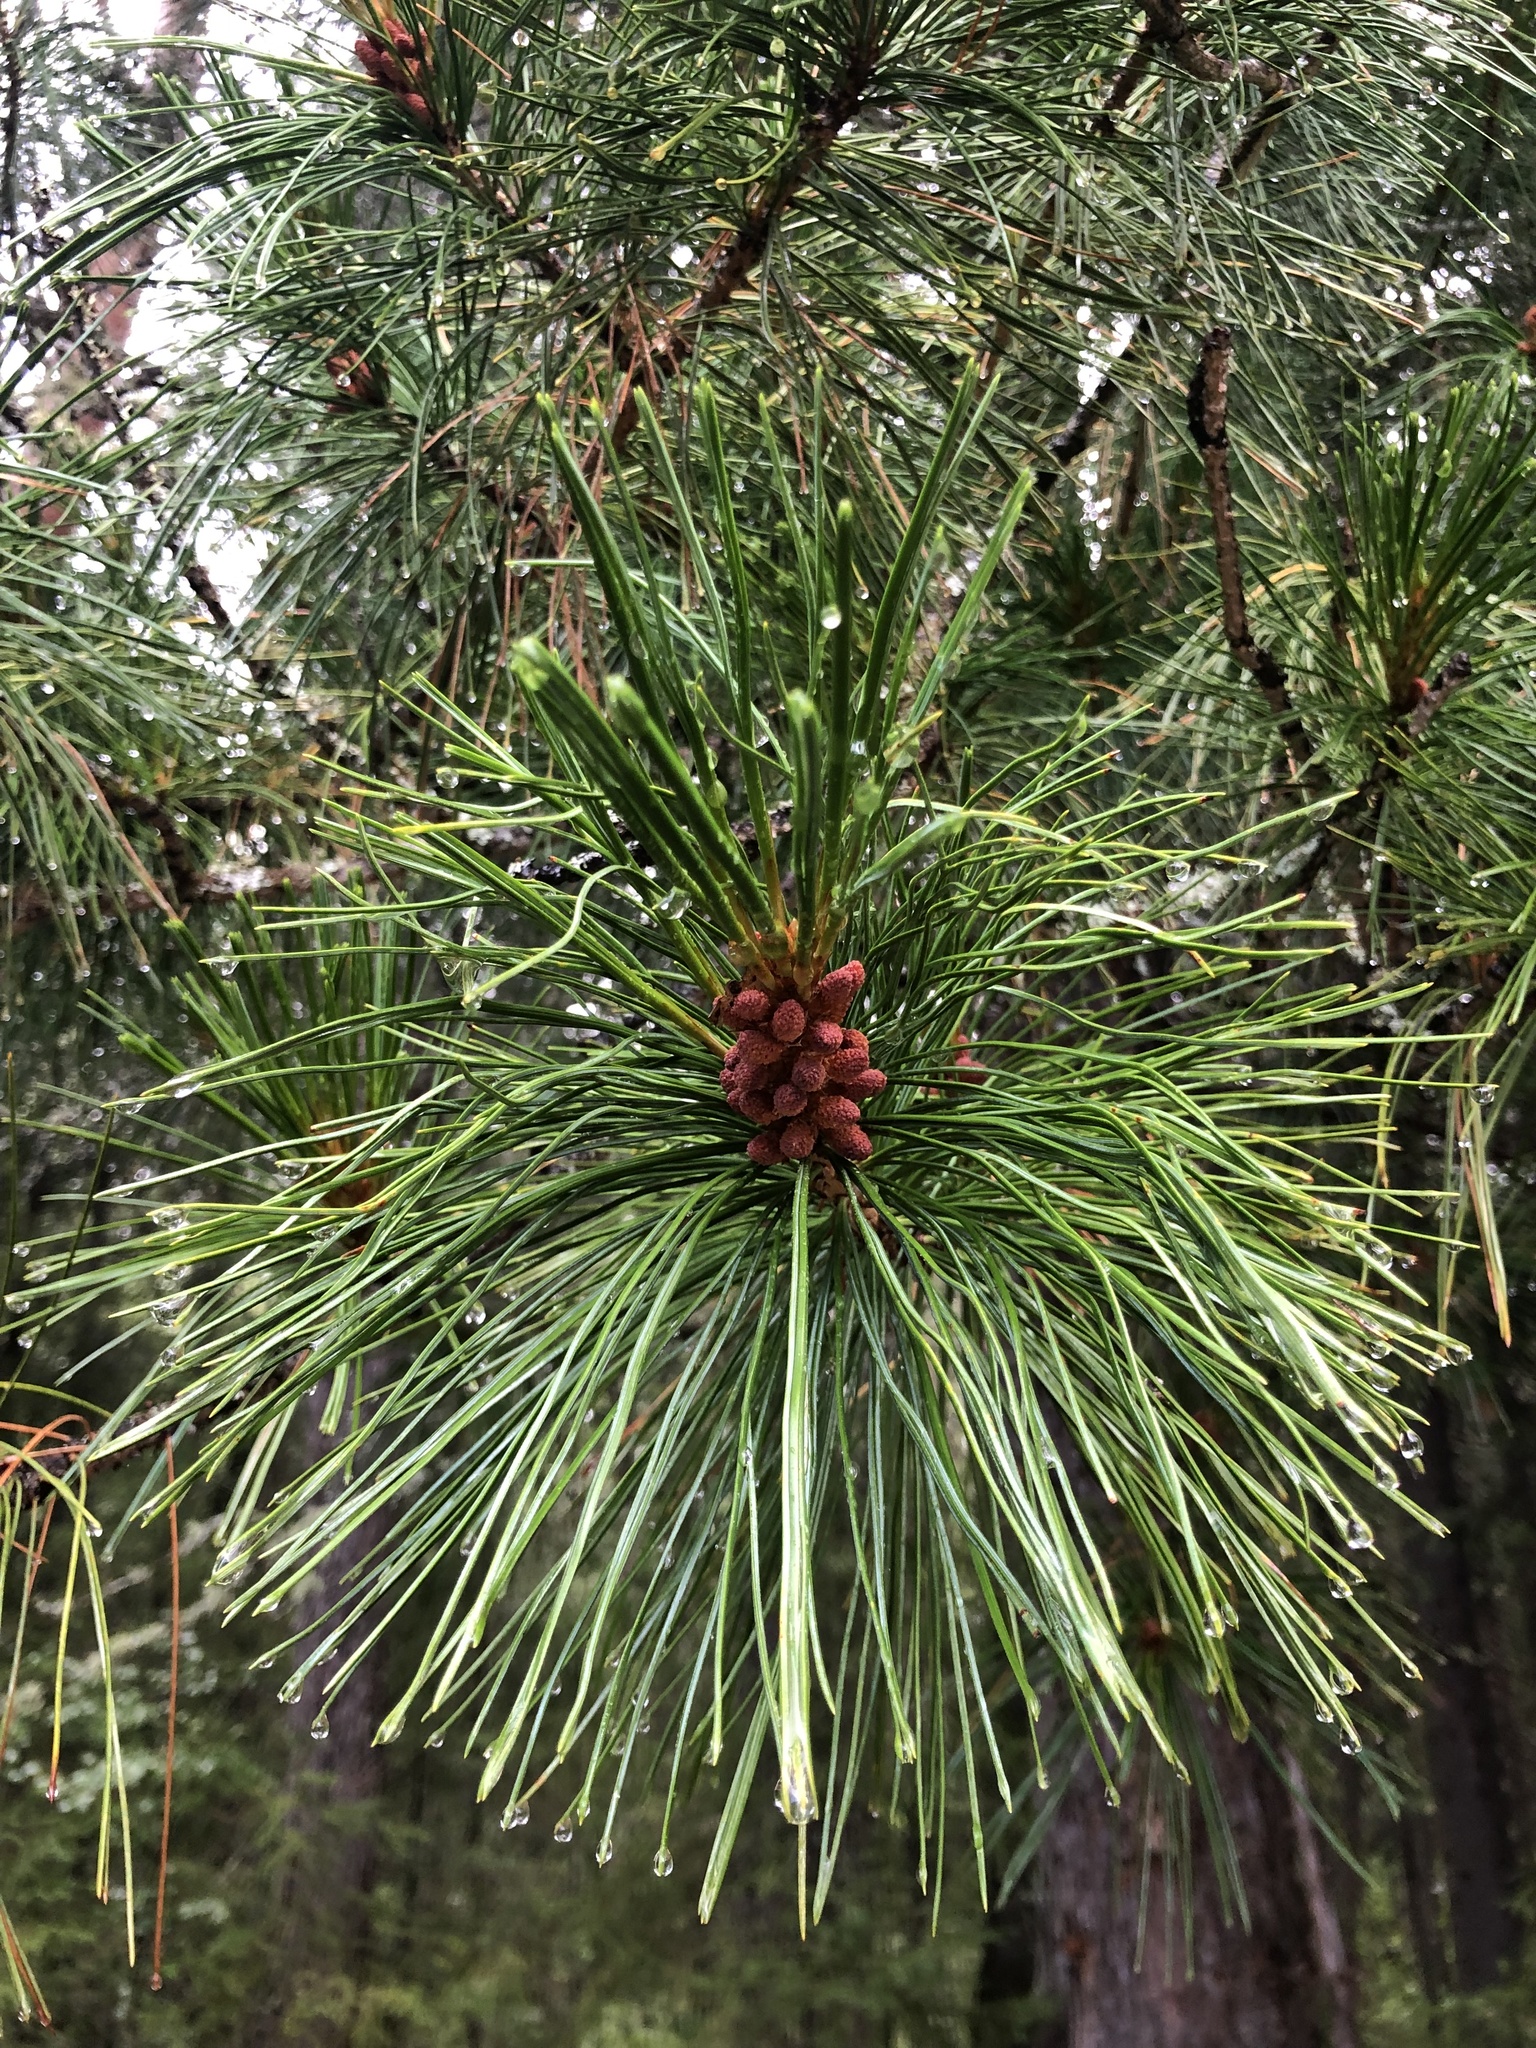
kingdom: Plantae
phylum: Tracheophyta
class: Pinopsida
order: Pinales
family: Pinaceae
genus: Pinus
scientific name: Pinus sibirica
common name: Siberian pine
